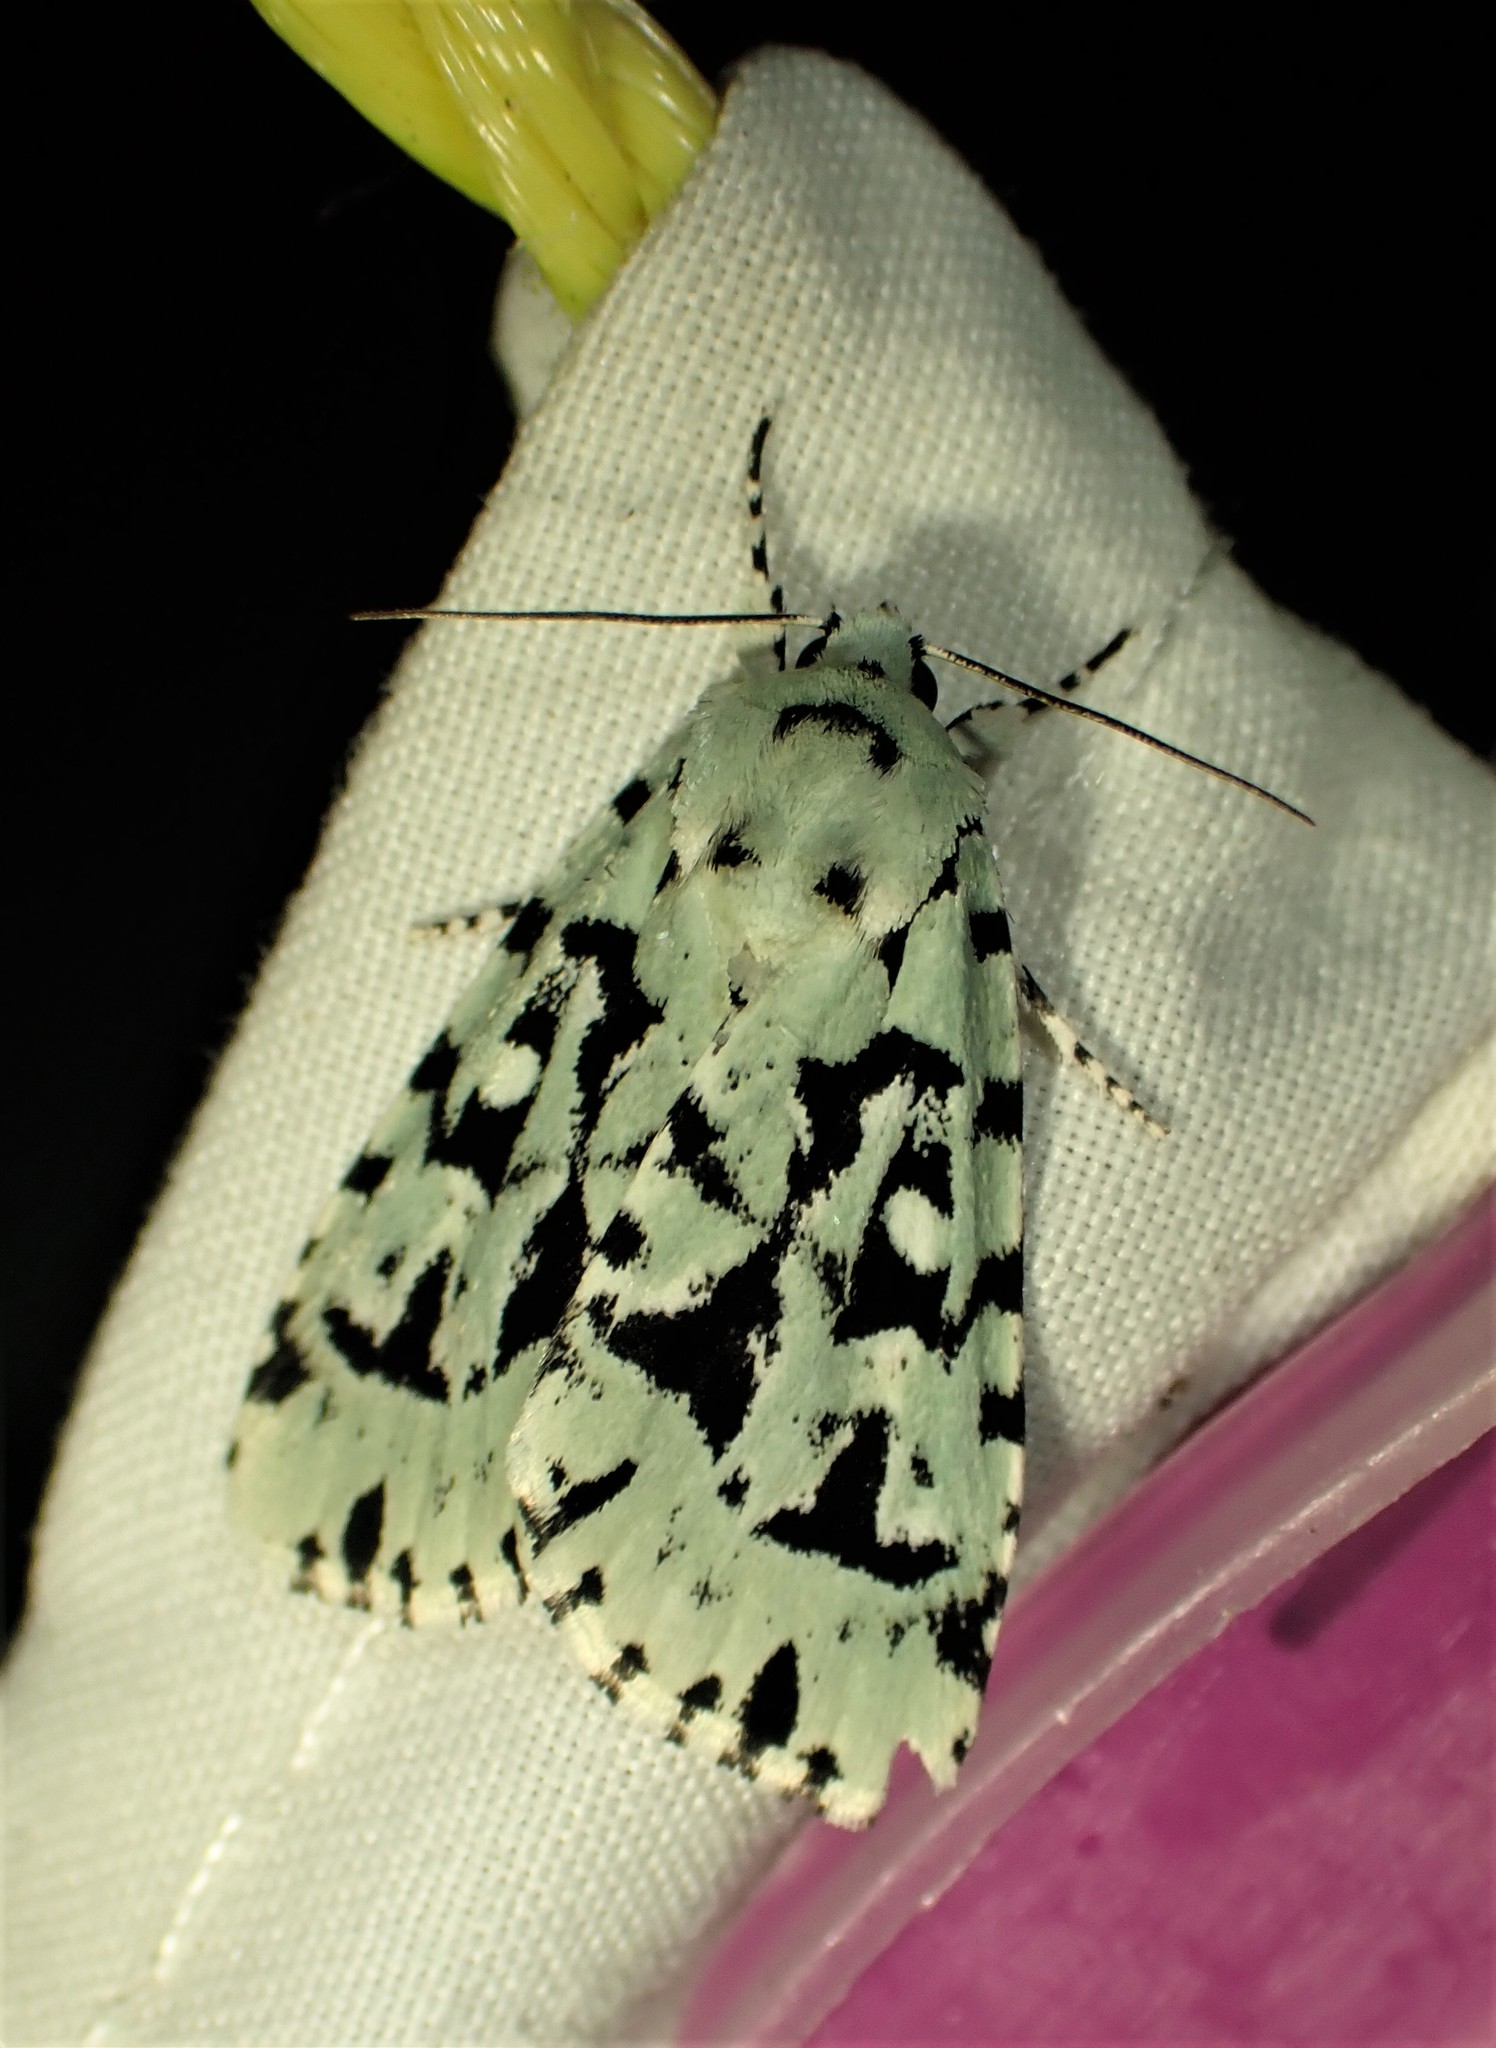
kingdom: Animalia
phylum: Arthropoda
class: Insecta
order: Lepidoptera
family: Noctuidae
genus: Acronicta
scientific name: Acronicta fallax
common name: Green marvel
